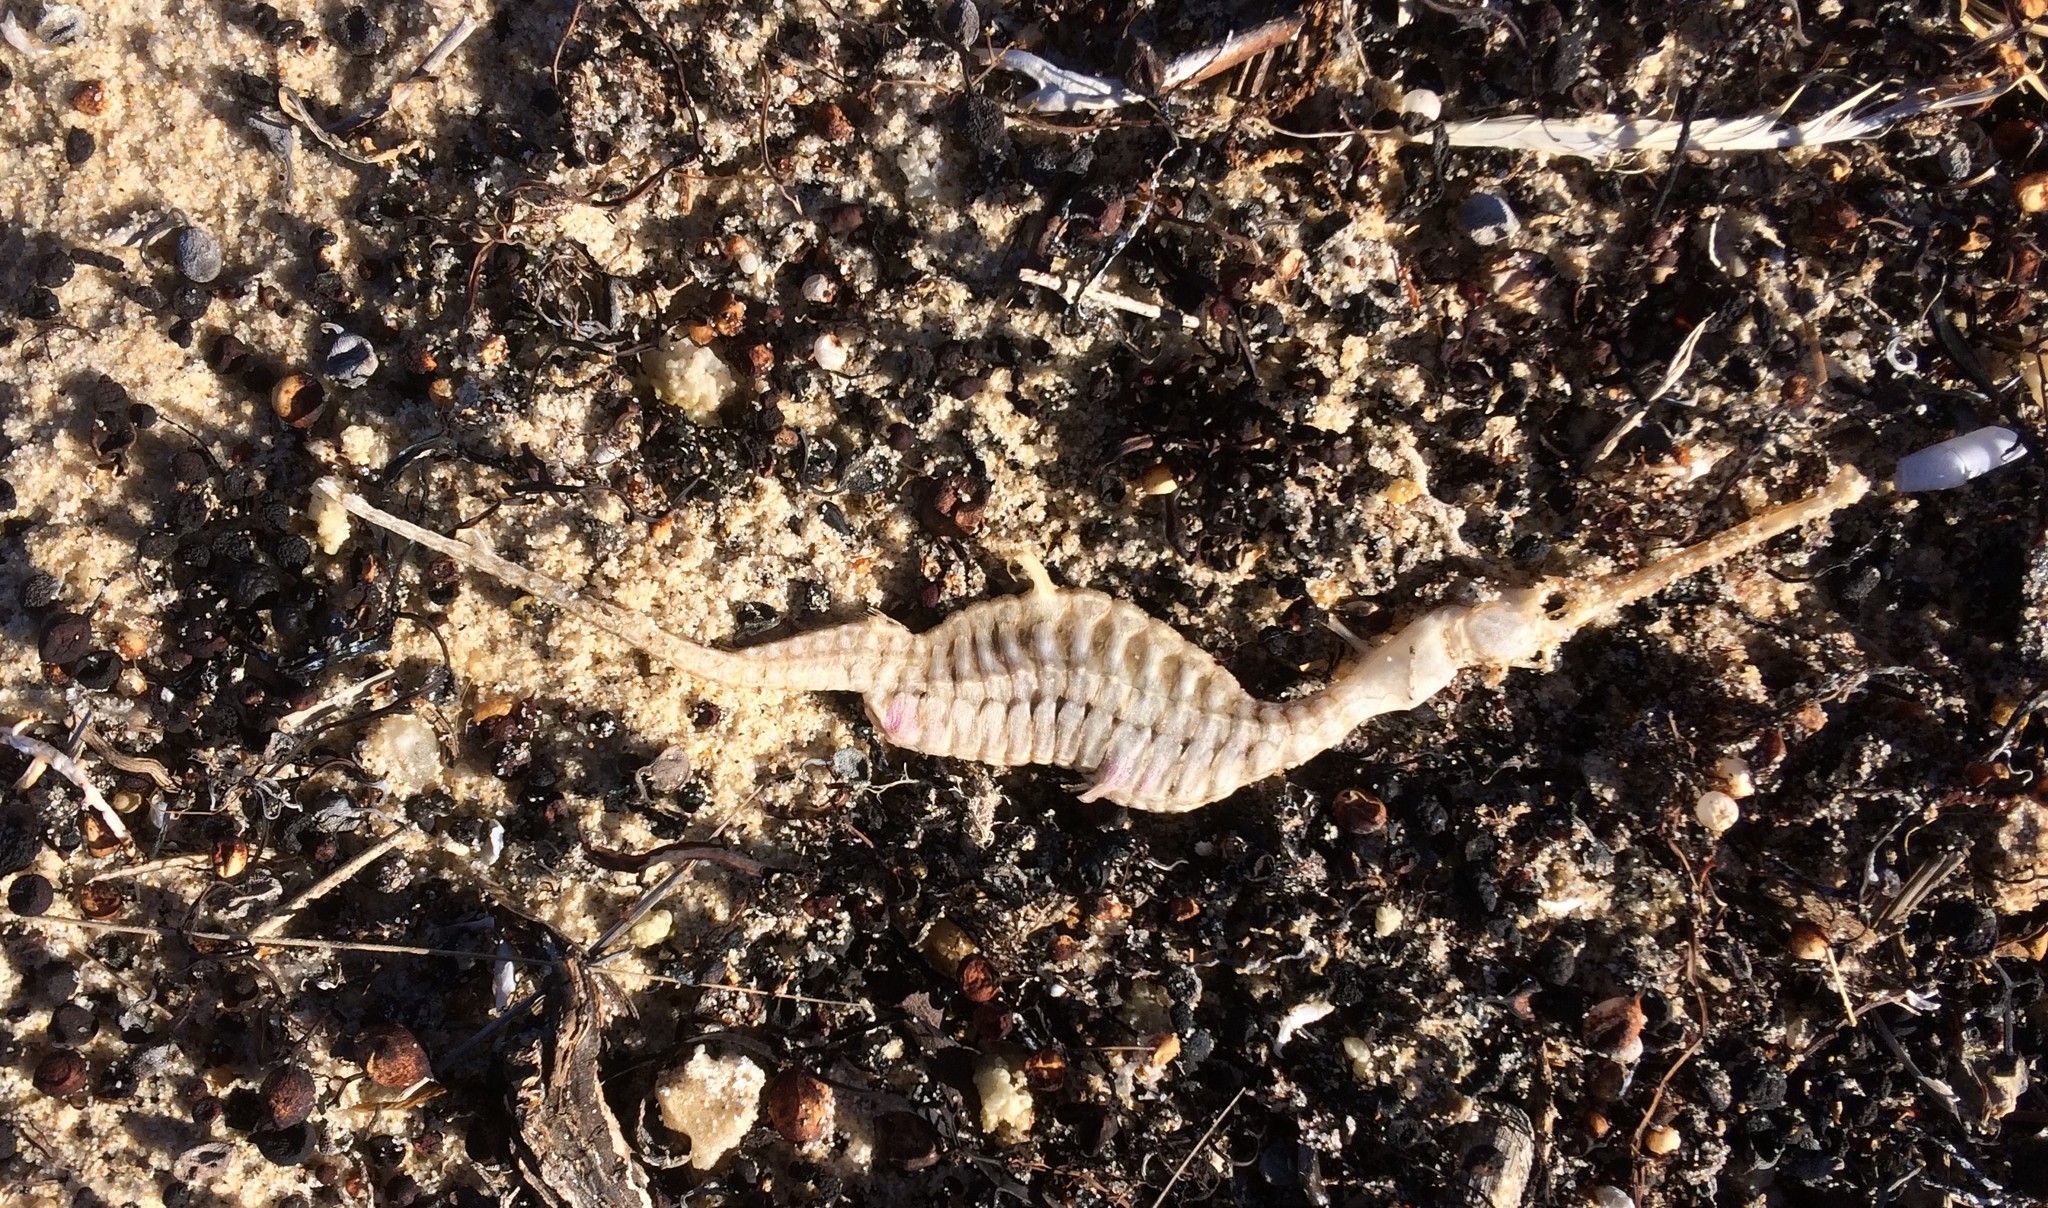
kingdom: Animalia
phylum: Chordata
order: Syngnathiformes
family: Syngnathidae
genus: Phyllopteryx
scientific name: Phyllopteryx taeniolatus
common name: Common seadragon
